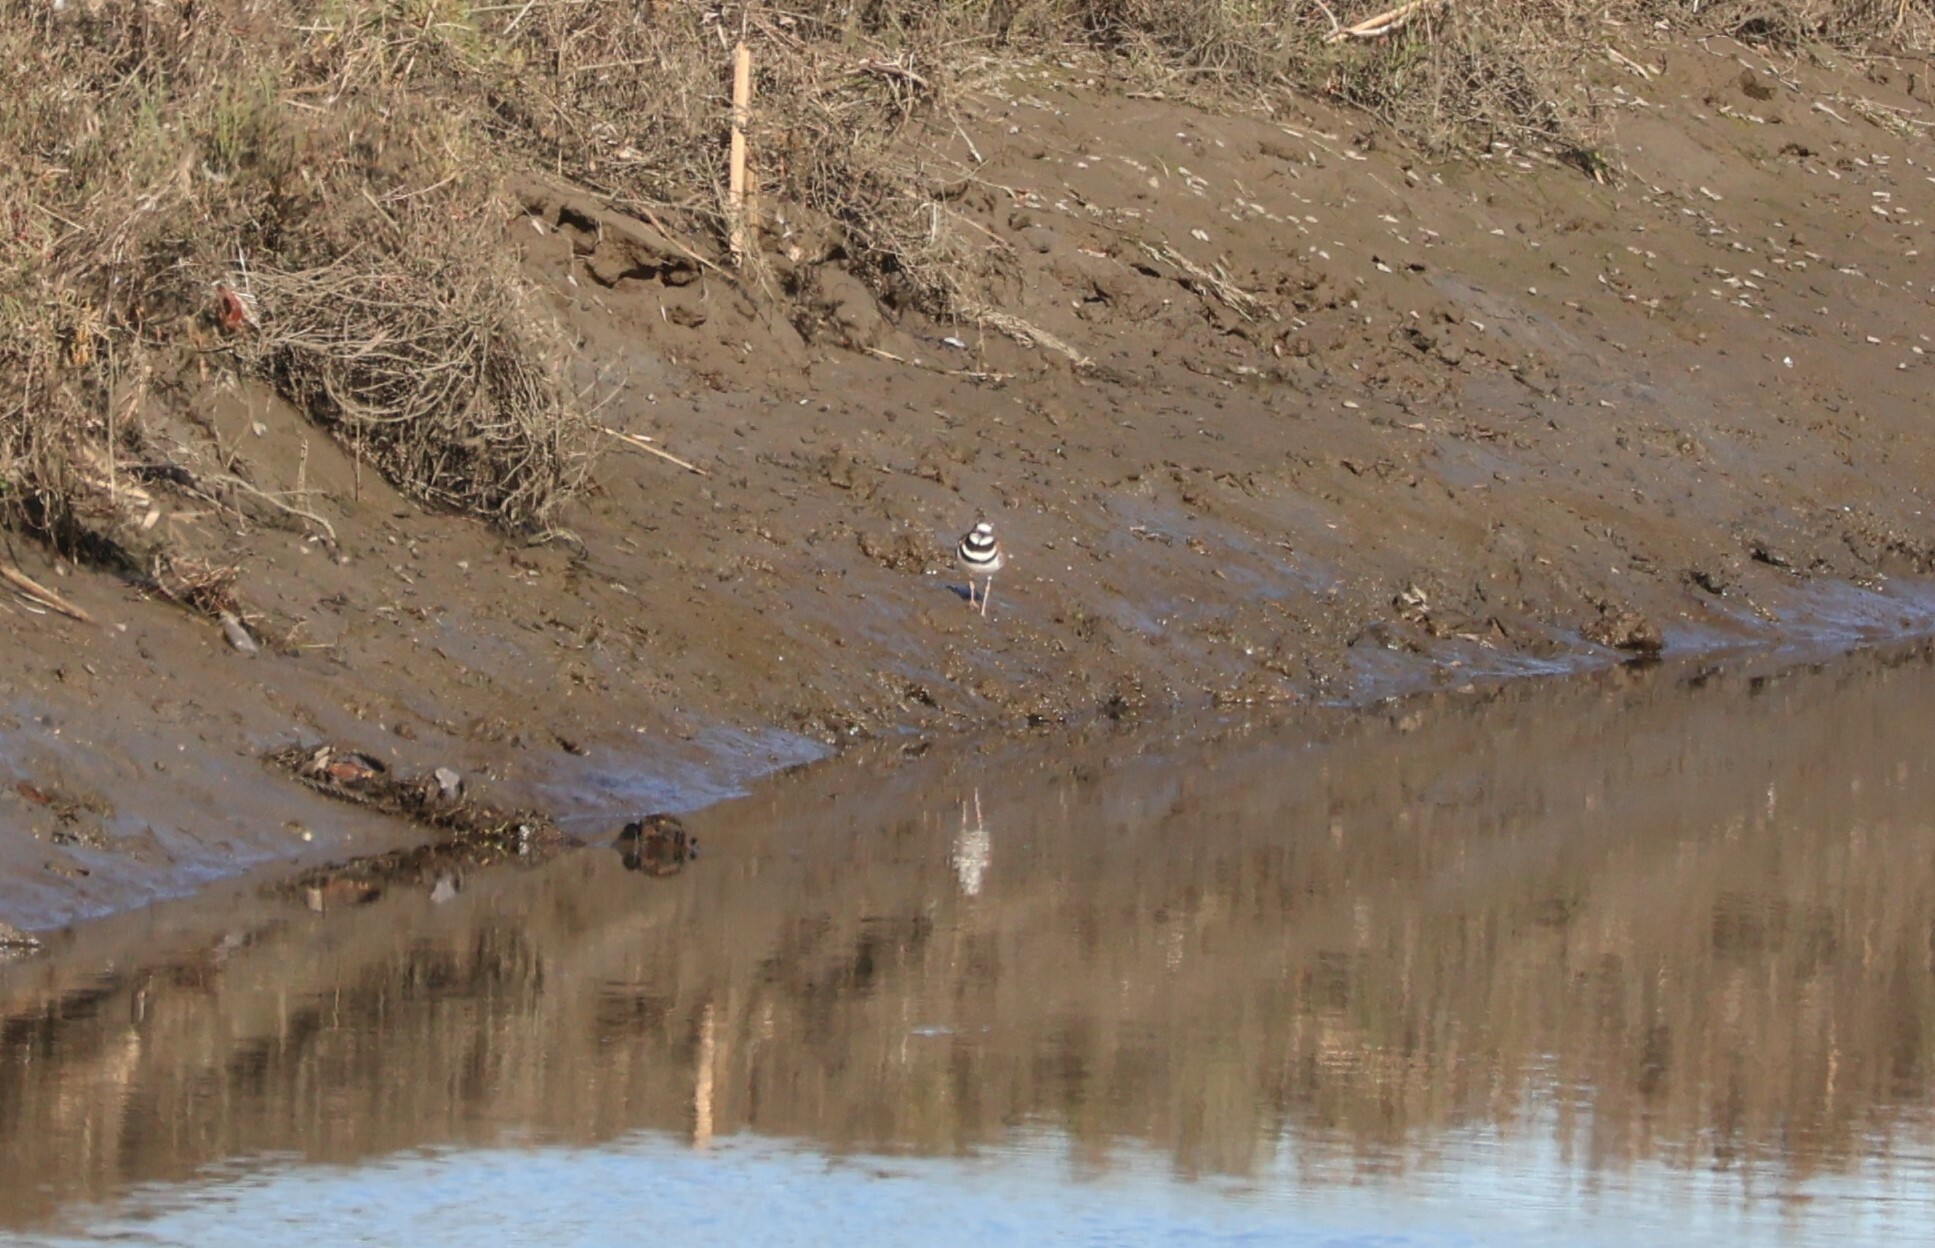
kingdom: Animalia
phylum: Chordata
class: Aves
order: Charadriiformes
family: Charadriidae
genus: Charadrius
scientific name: Charadrius vociferus
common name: Killdeer
